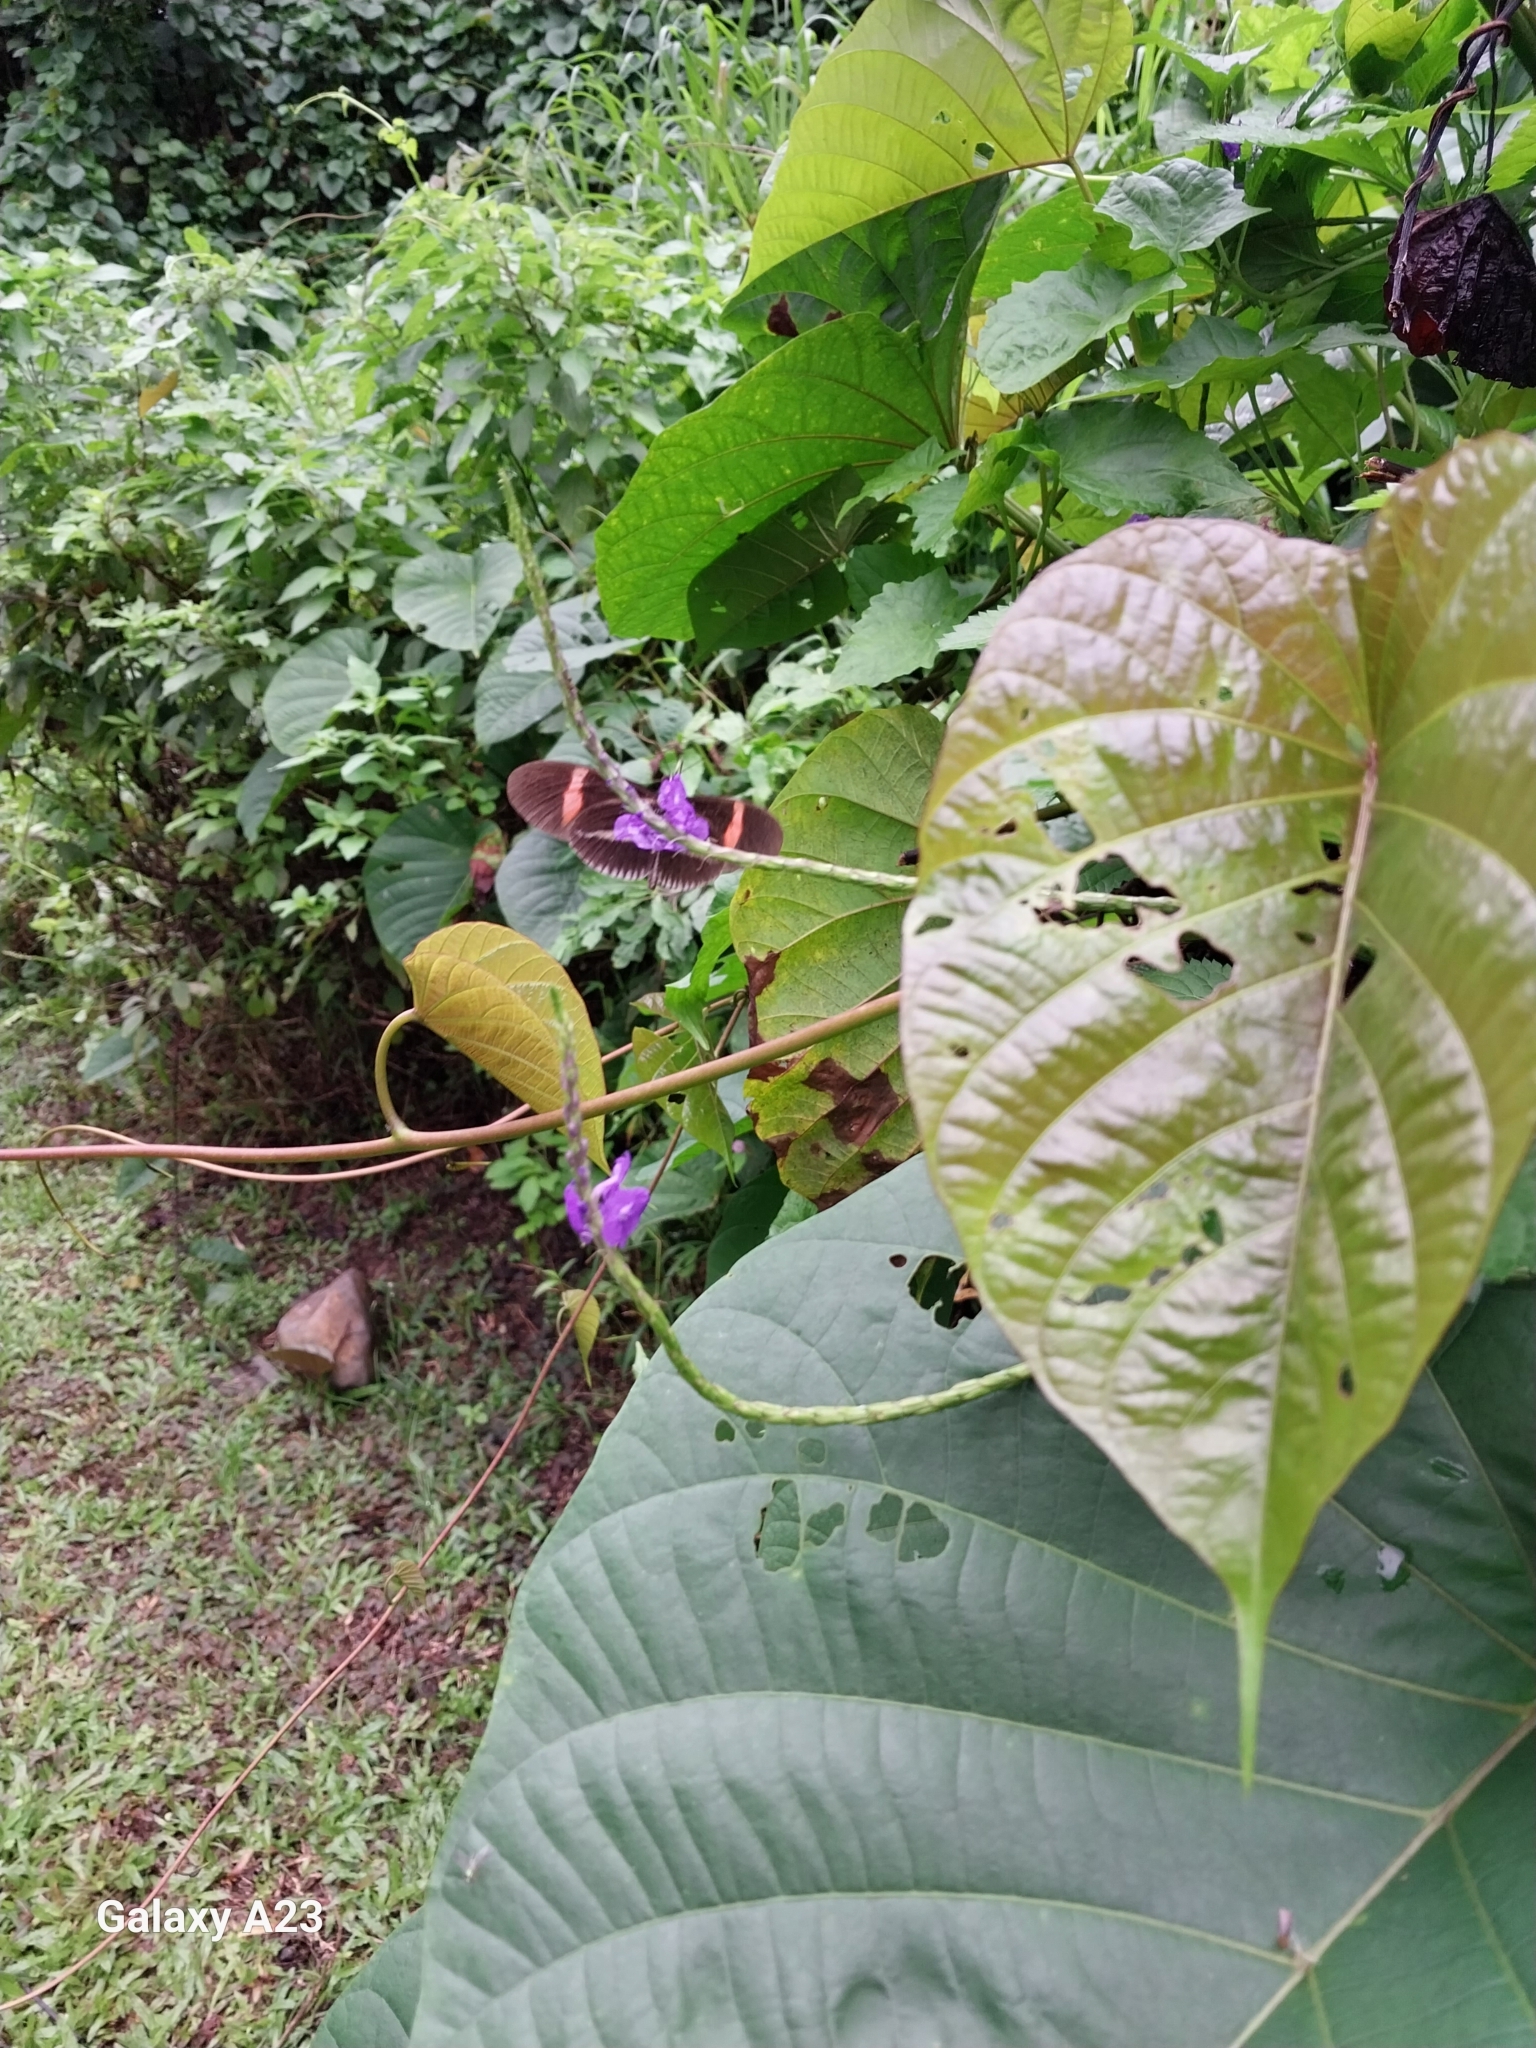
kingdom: Animalia
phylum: Arthropoda
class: Insecta
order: Lepidoptera
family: Nymphalidae
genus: Heliconius
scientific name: Heliconius erato
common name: Common patch longwing
